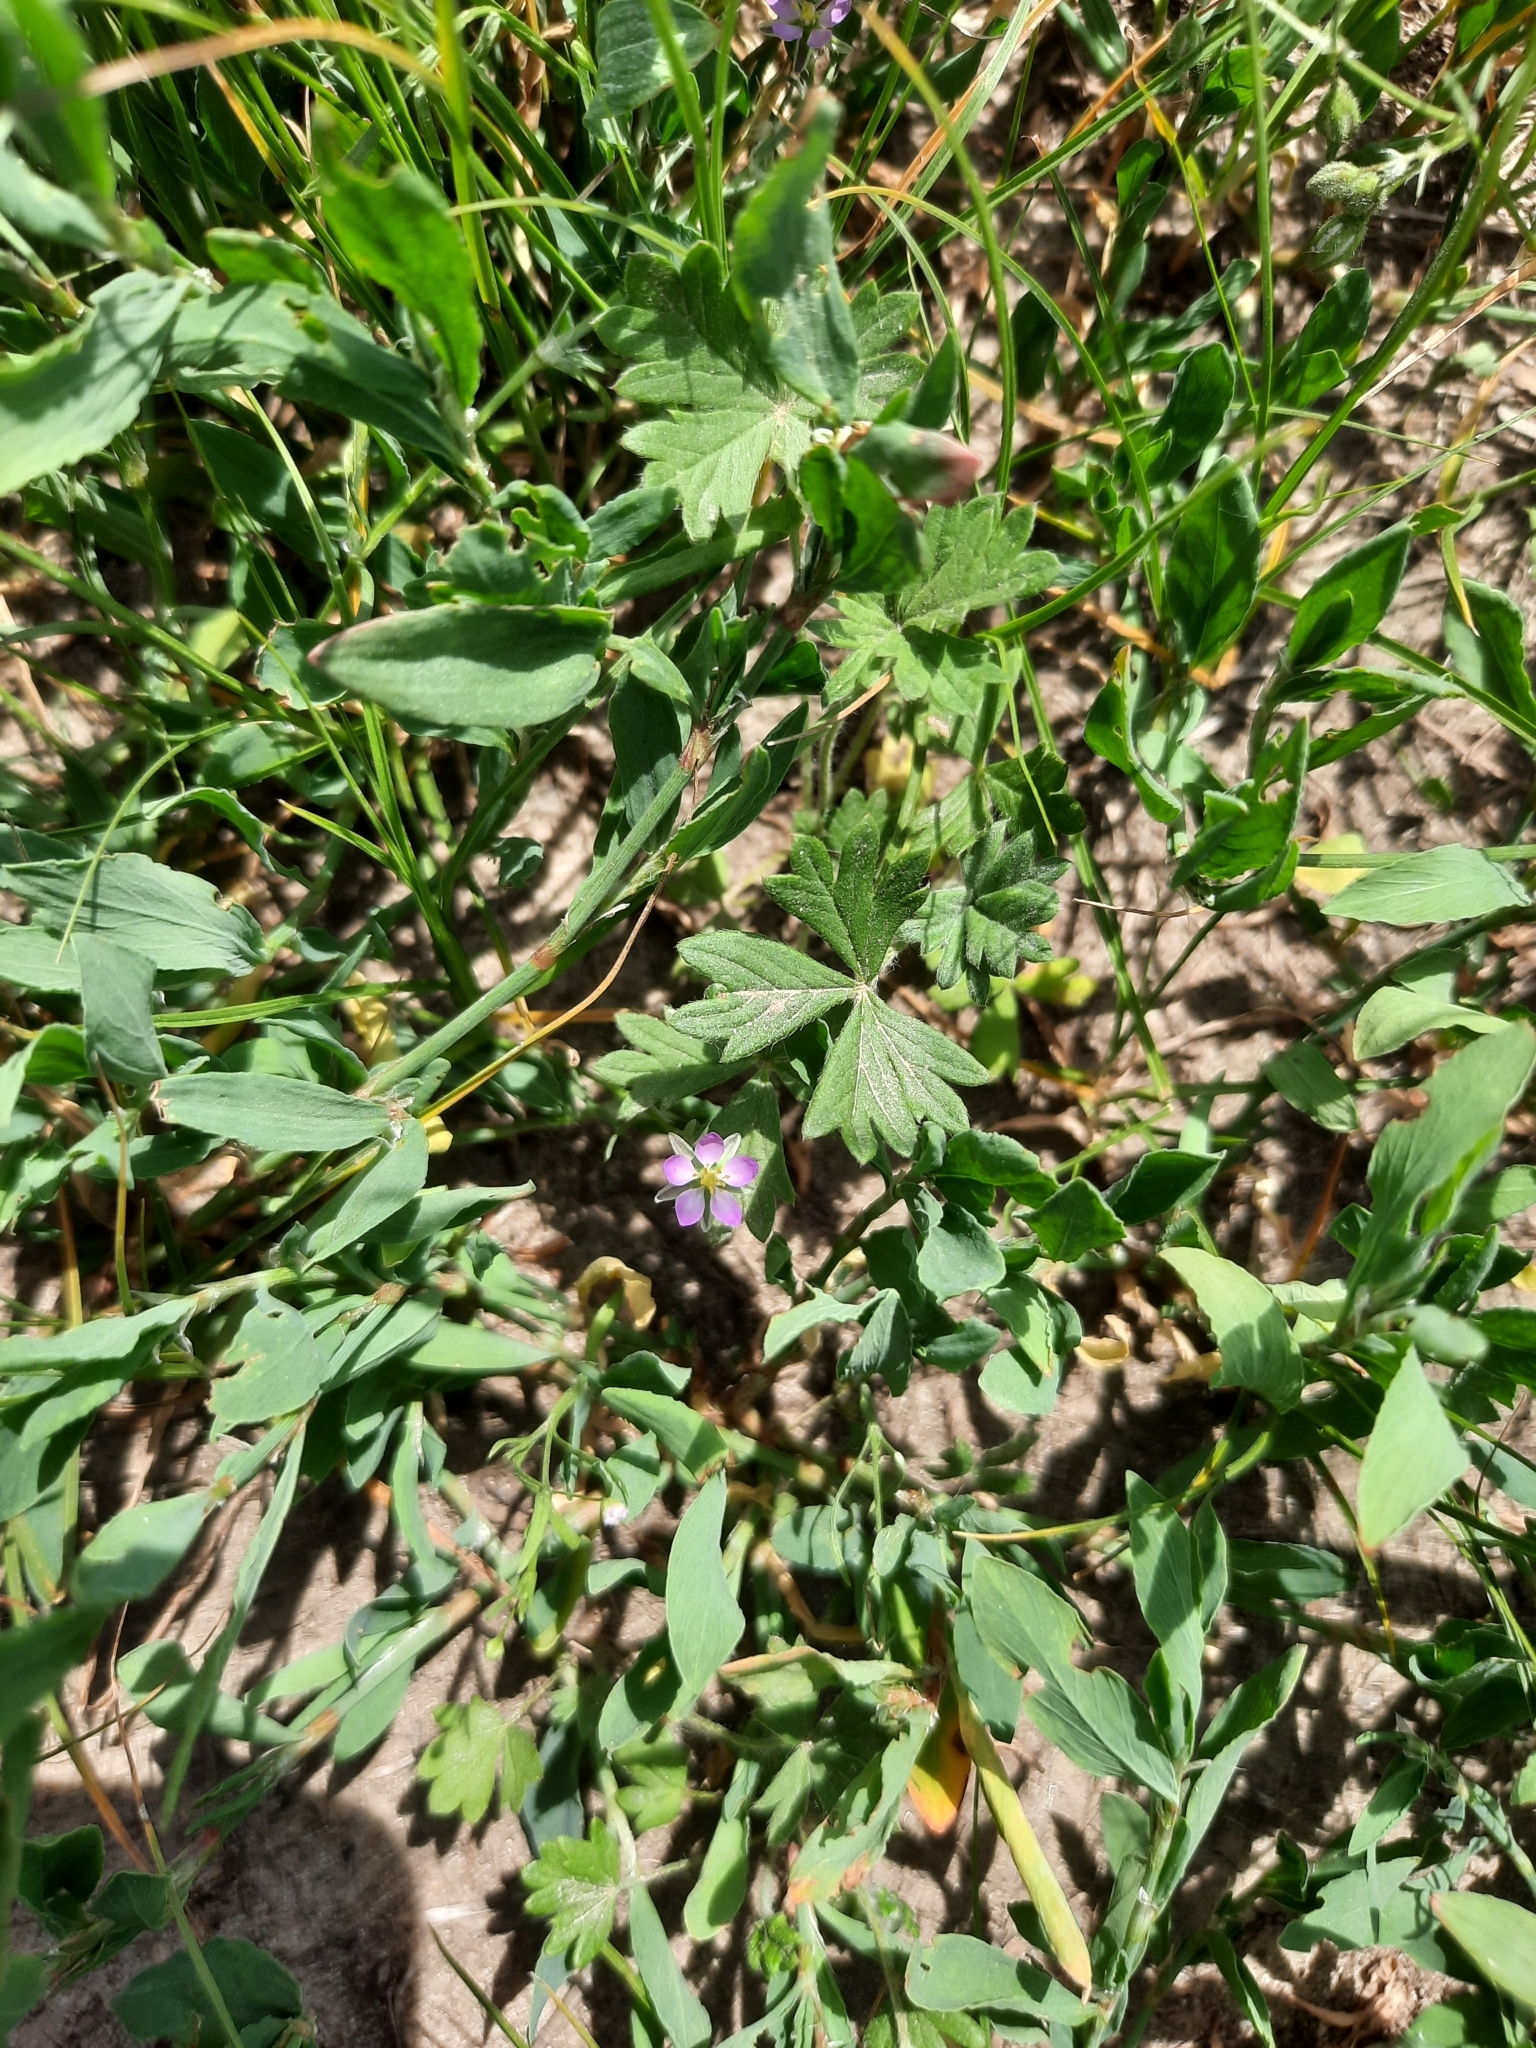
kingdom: Plantae
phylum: Tracheophyta
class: Magnoliopsida
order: Caryophyllales
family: Caryophyllaceae
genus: Spergularia
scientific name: Spergularia rubra
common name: Red sand-spurrey
